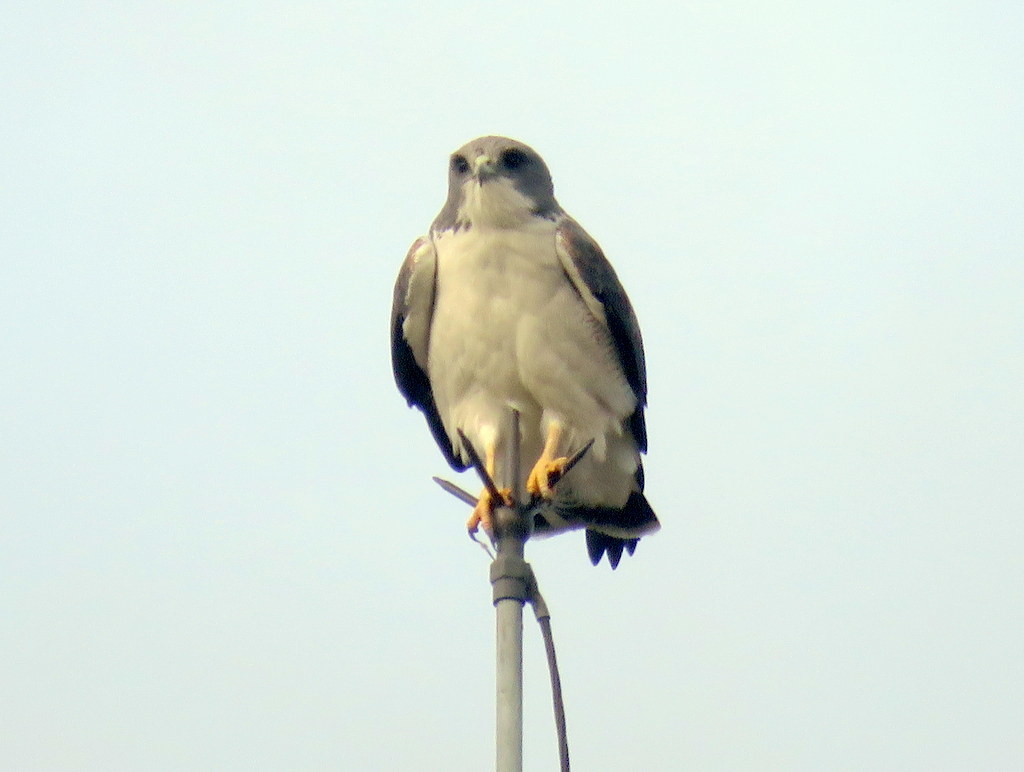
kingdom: Animalia
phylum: Chordata
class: Aves
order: Accipitriformes
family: Accipitridae
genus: Buteo
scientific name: Buteo albicaudatus
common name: White-tailed hawk
